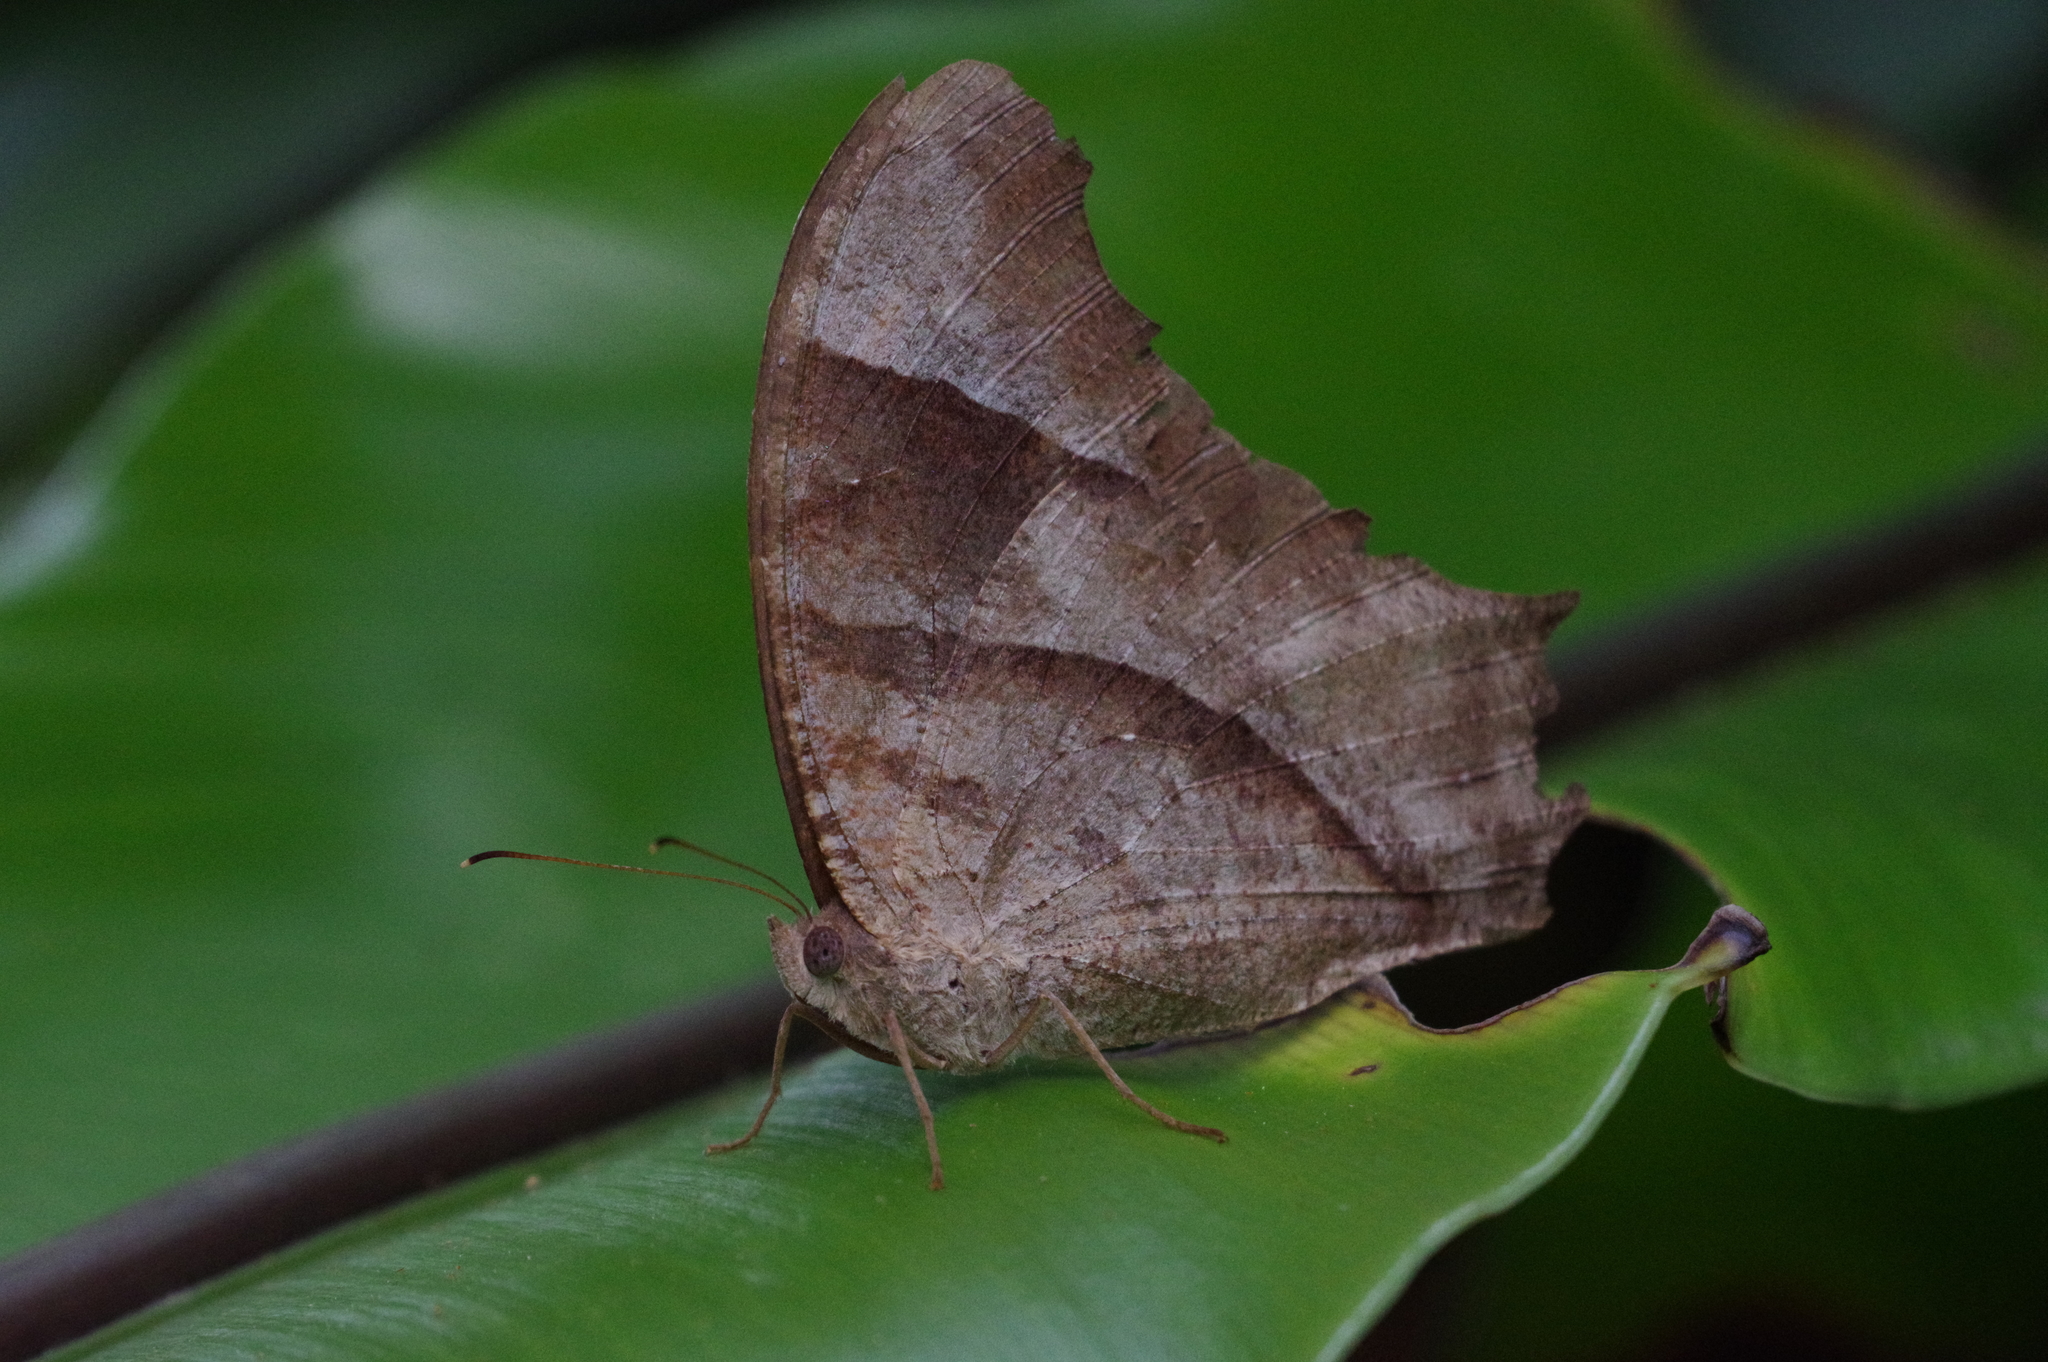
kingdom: Animalia
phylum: Arthropoda
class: Insecta
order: Lepidoptera
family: Nymphalidae
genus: Melanitis
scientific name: Melanitis leda
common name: Twilight brown
